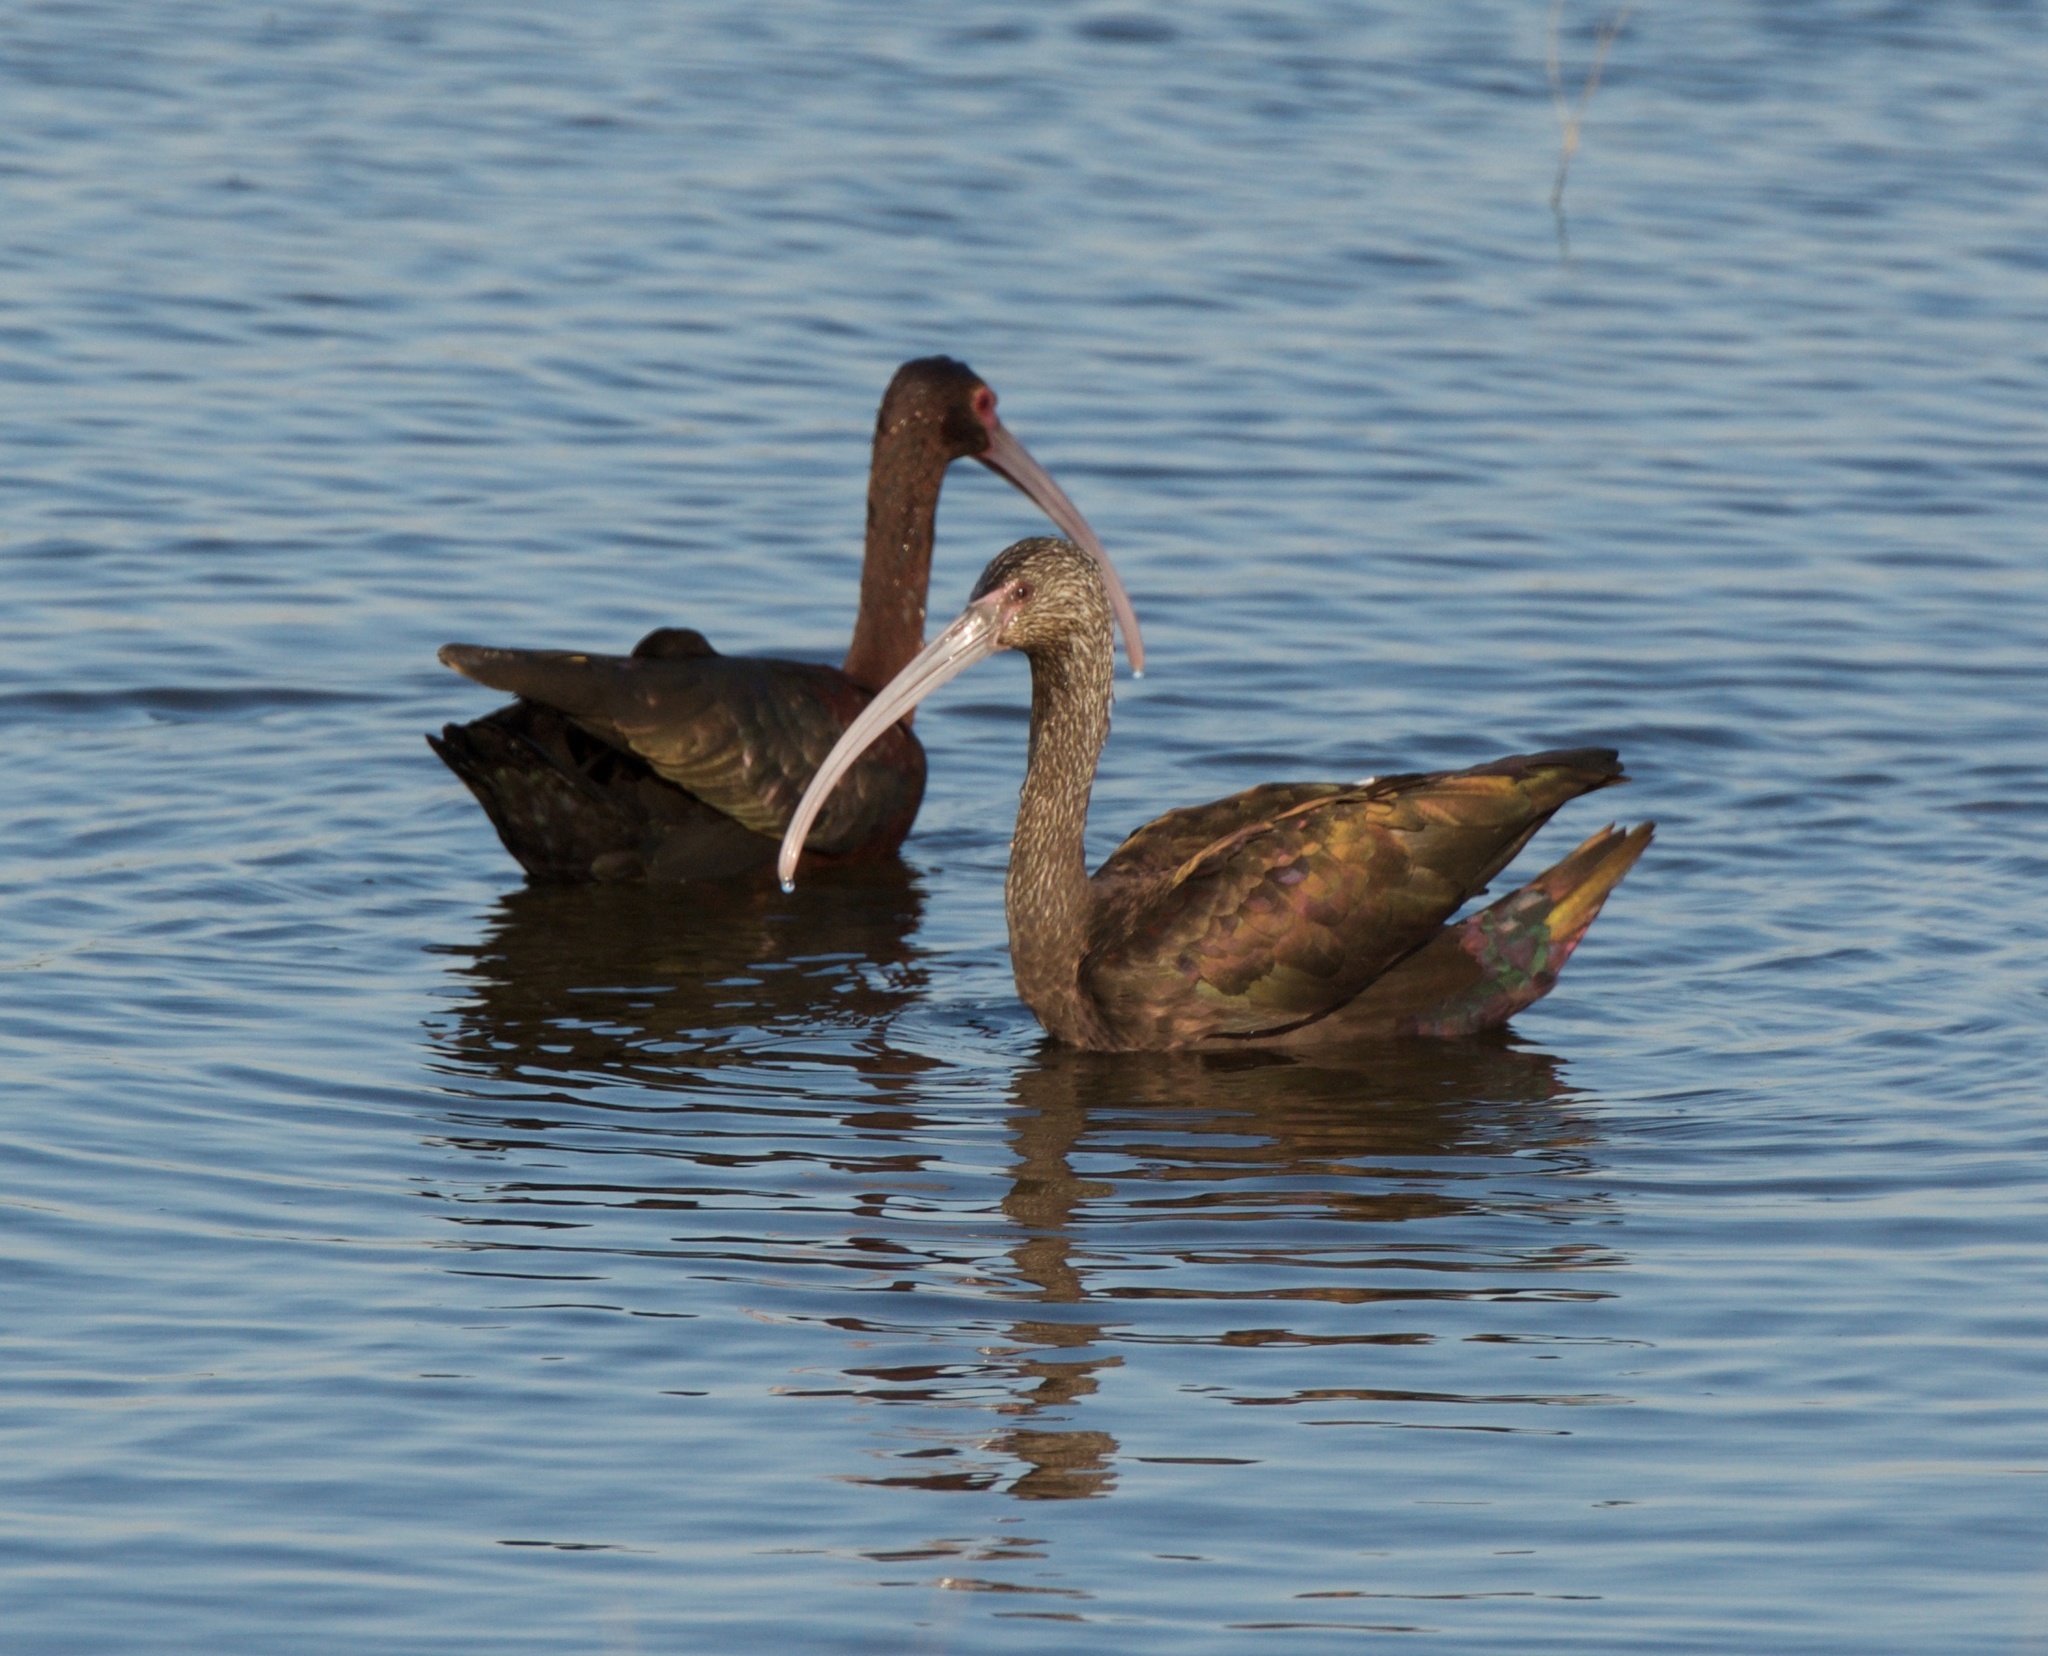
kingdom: Animalia
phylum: Chordata
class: Aves
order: Pelecaniformes
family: Threskiornithidae
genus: Plegadis
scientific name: Plegadis chihi
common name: White-faced ibis
